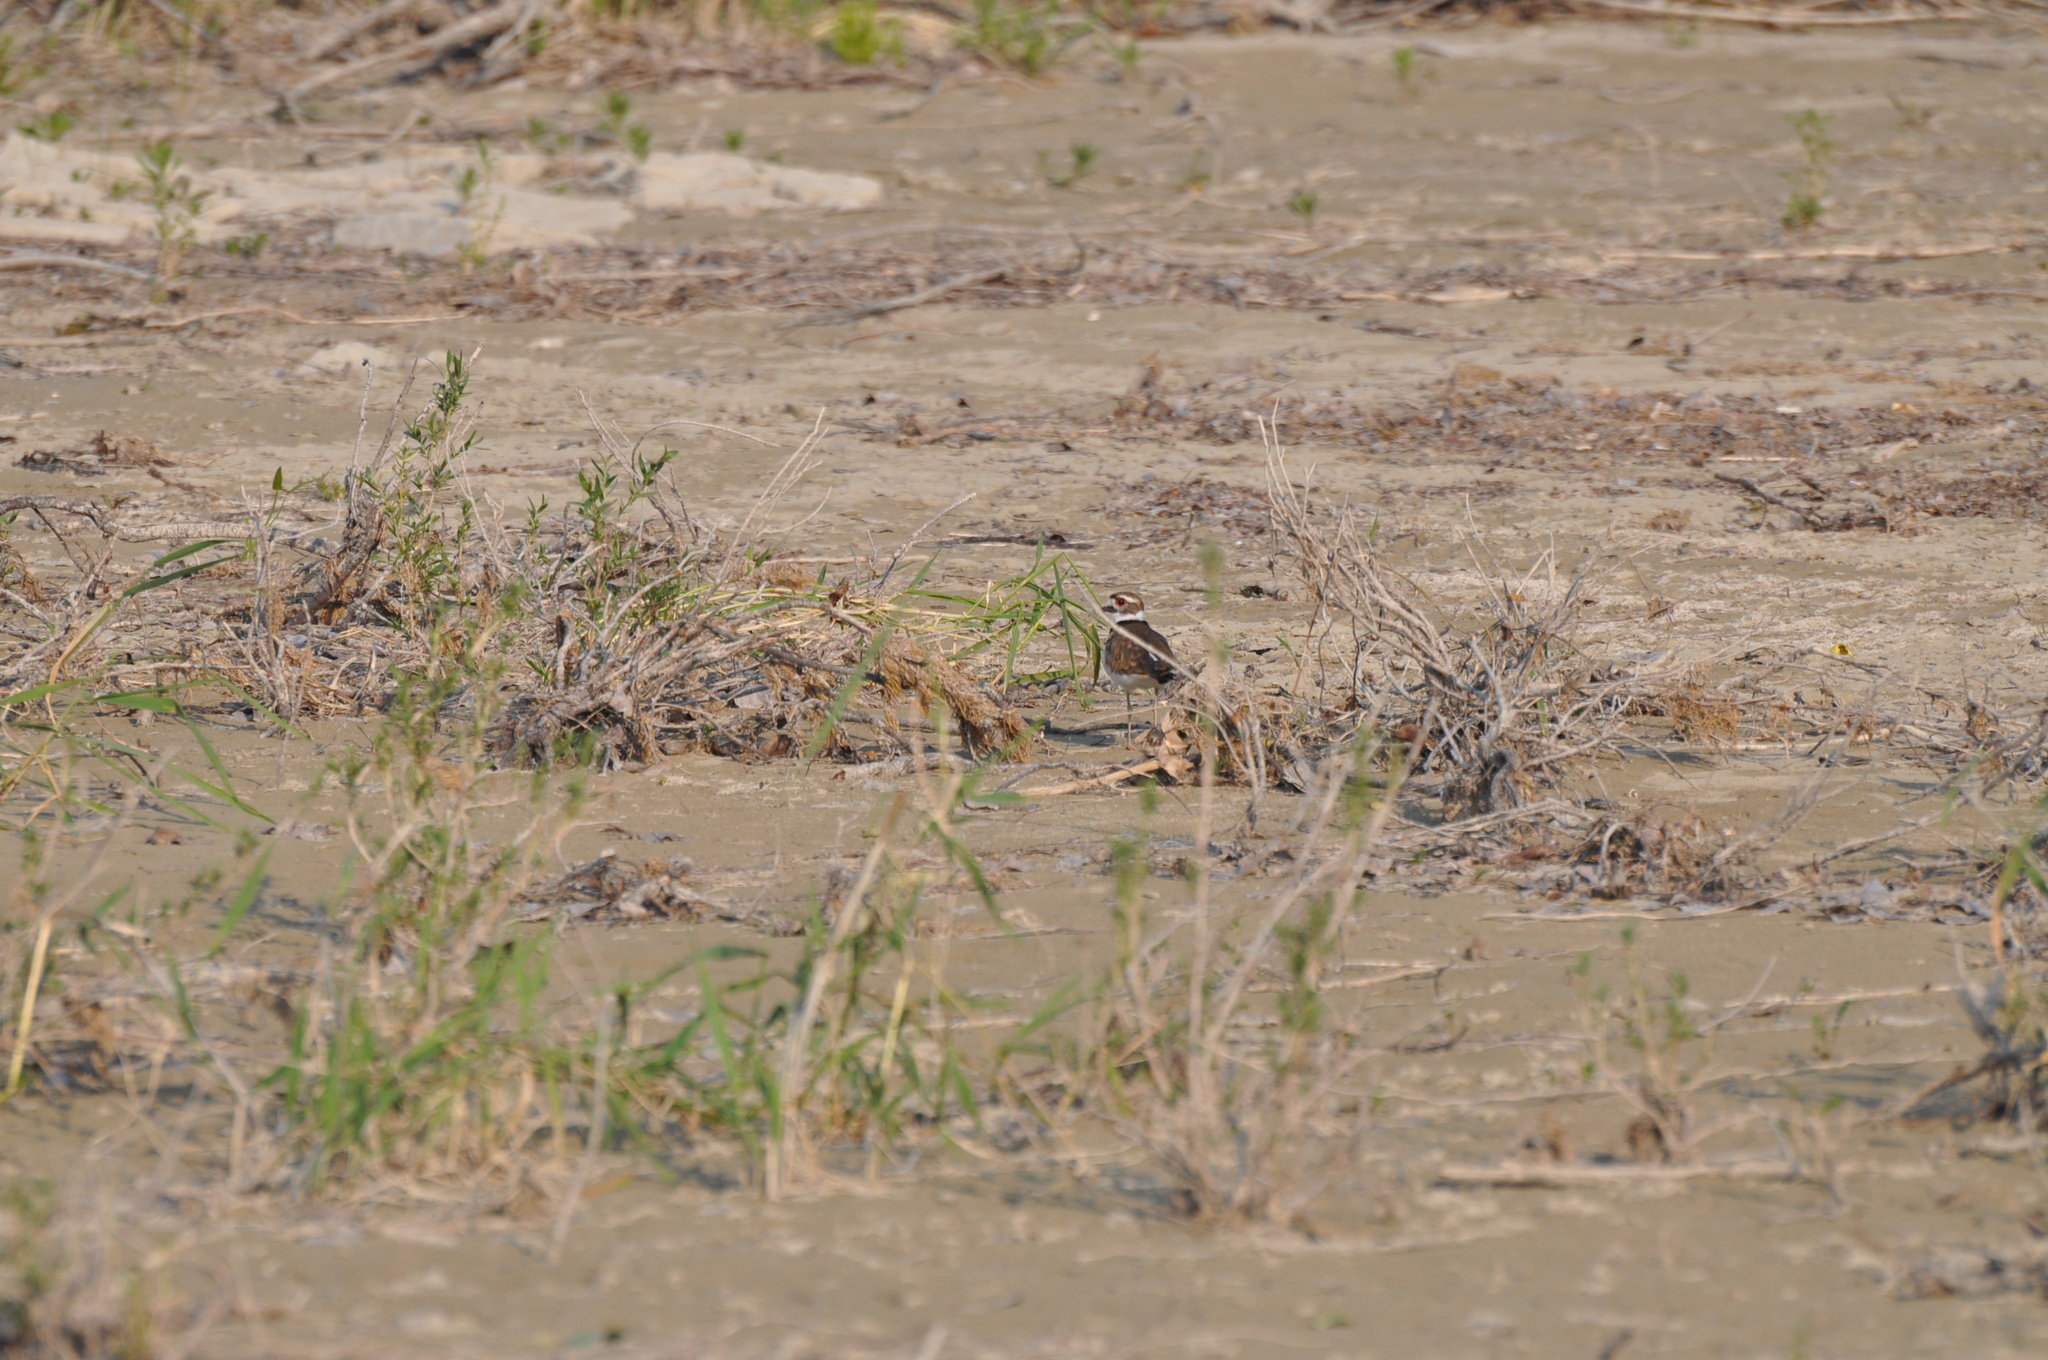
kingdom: Animalia
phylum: Chordata
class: Aves
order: Charadriiformes
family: Charadriidae
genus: Charadrius
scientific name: Charadrius vociferus
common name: Killdeer
